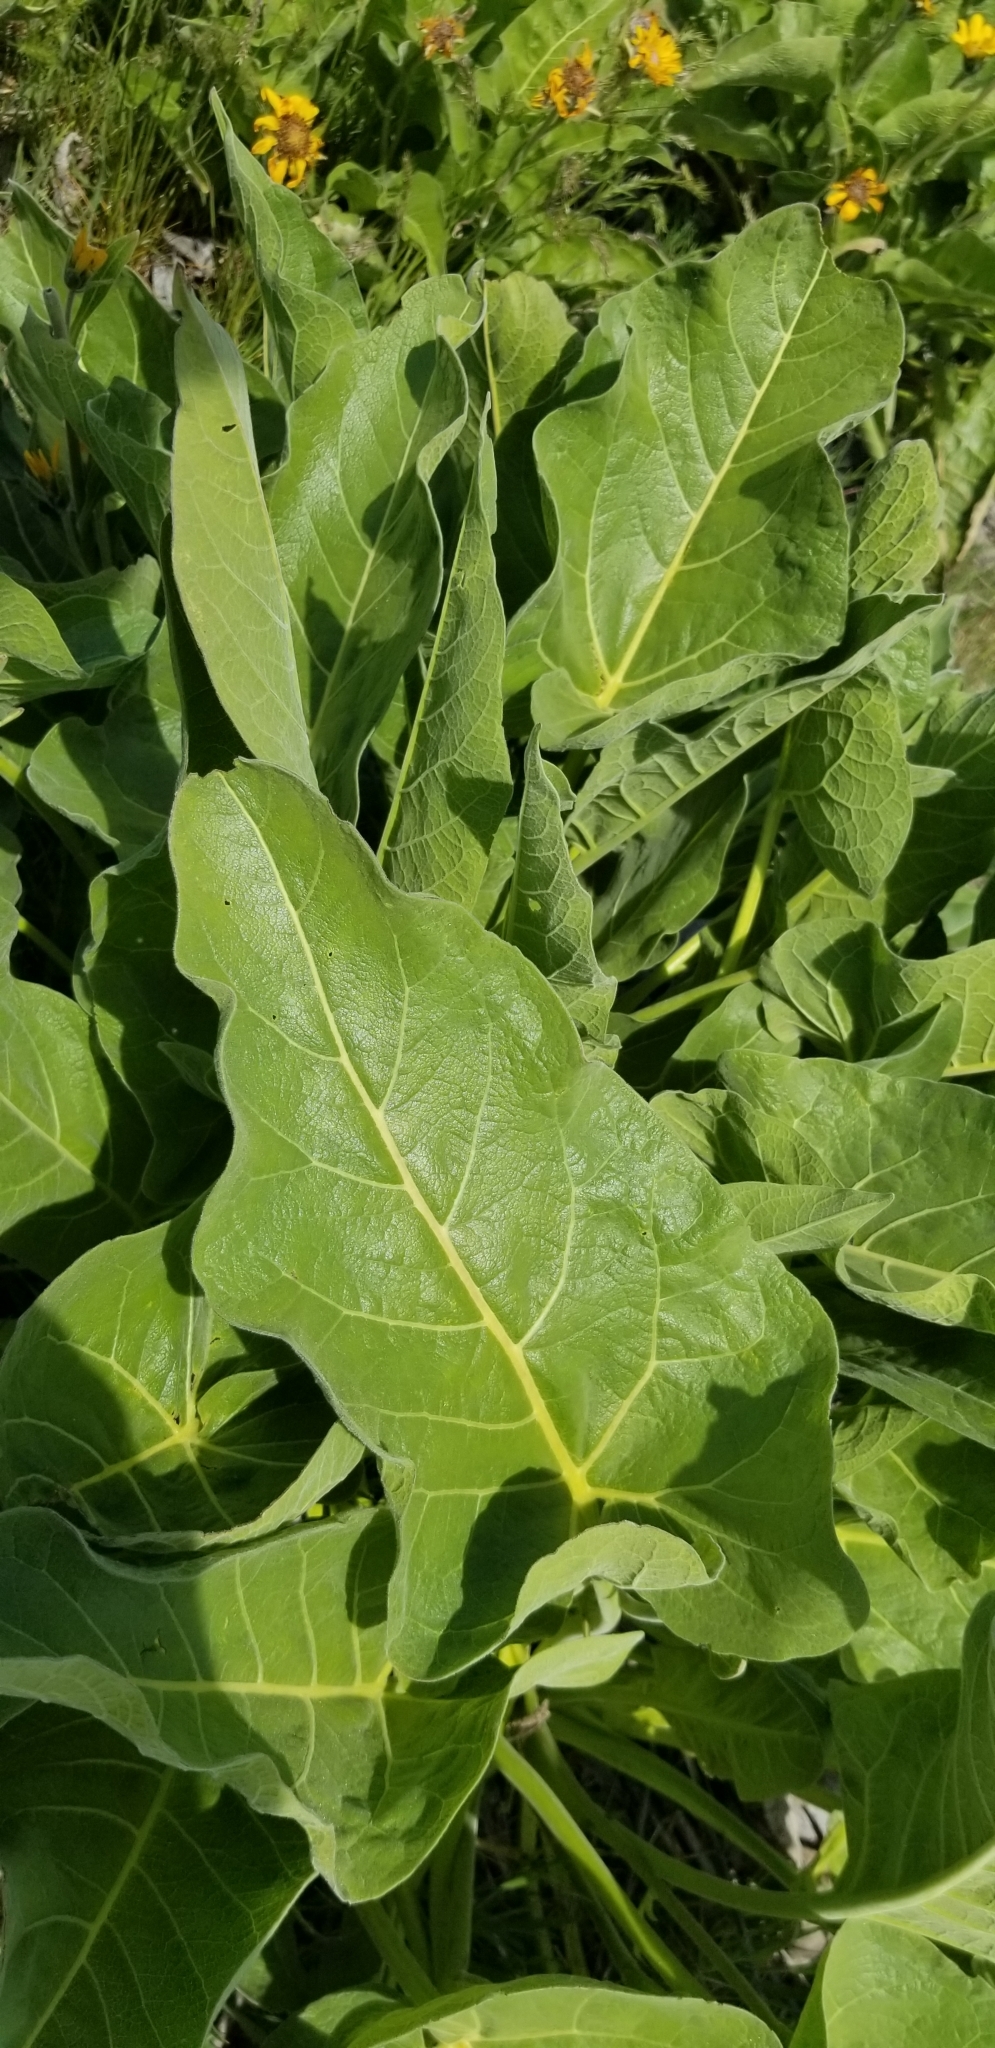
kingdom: Plantae
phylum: Tracheophyta
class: Magnoliopsida
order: Asterales
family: Asteraceae
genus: Wyethia
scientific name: Wyethia sagittata
